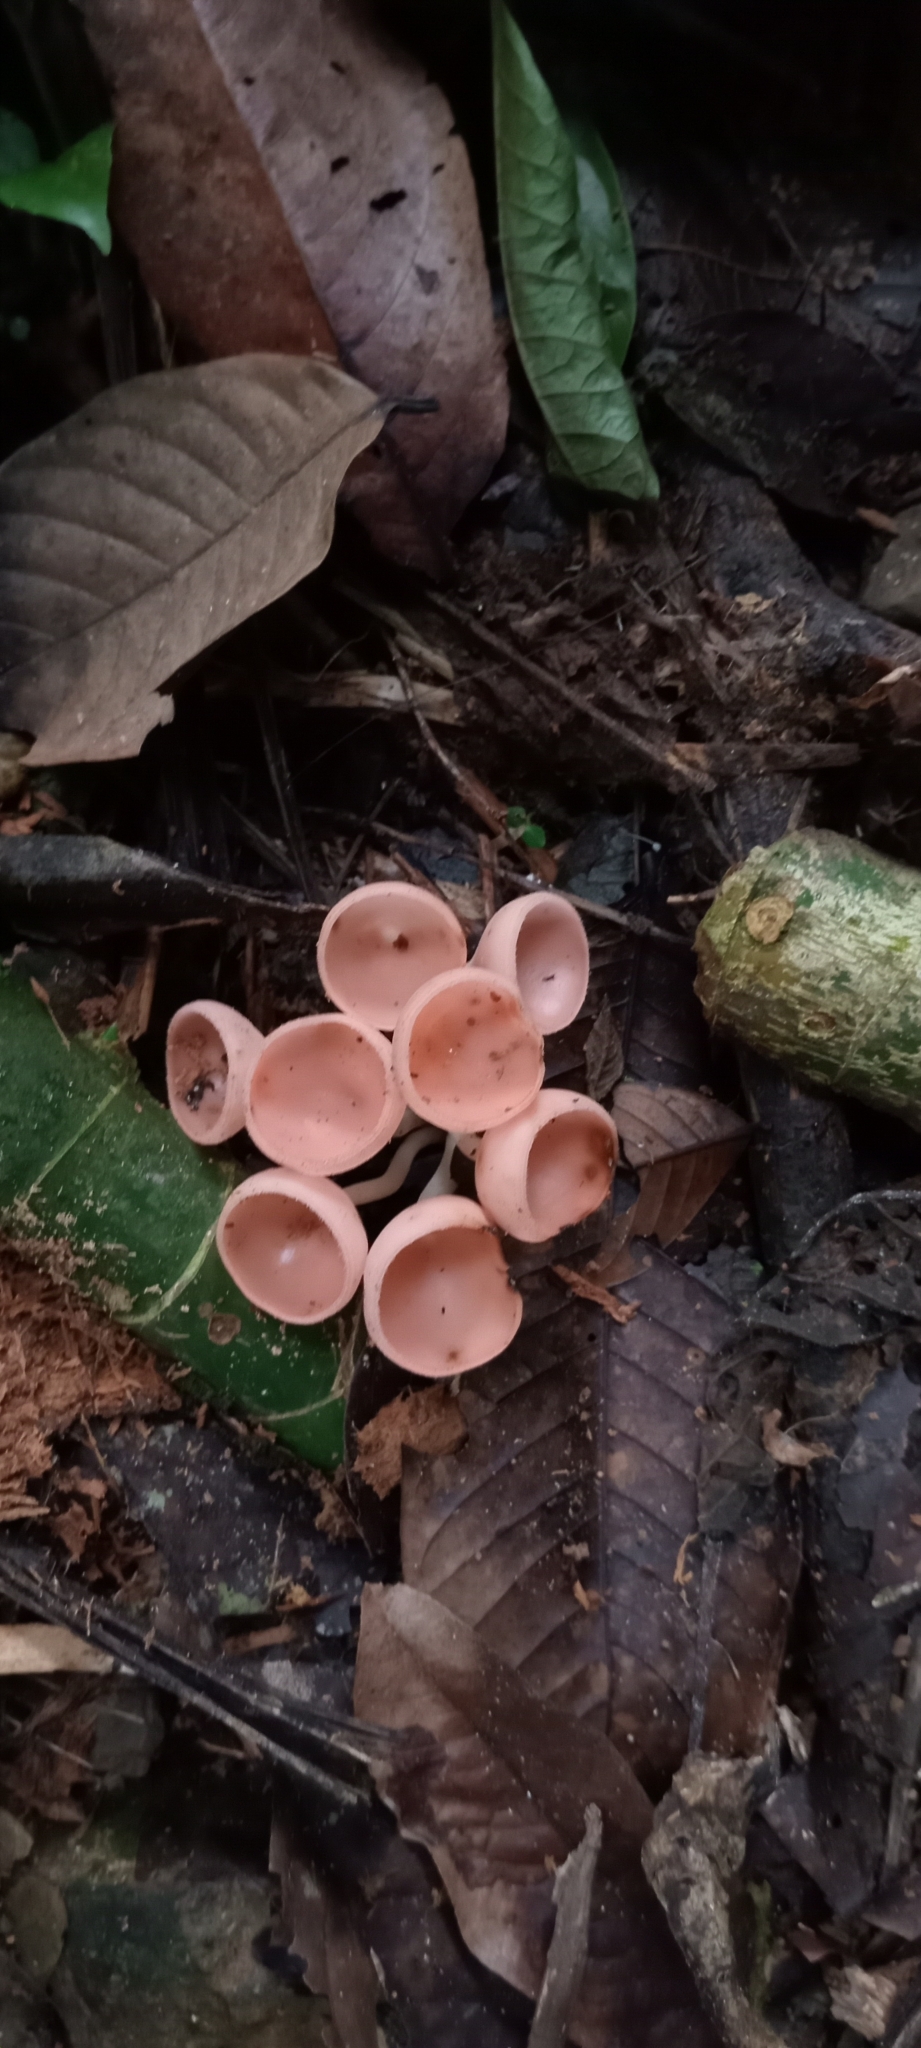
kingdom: Fungi
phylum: Ascomycota
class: Pezizomycetes
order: Pezizales
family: Sarcoscyphaceae
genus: Cookeina
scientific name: Cookeina speciosa
